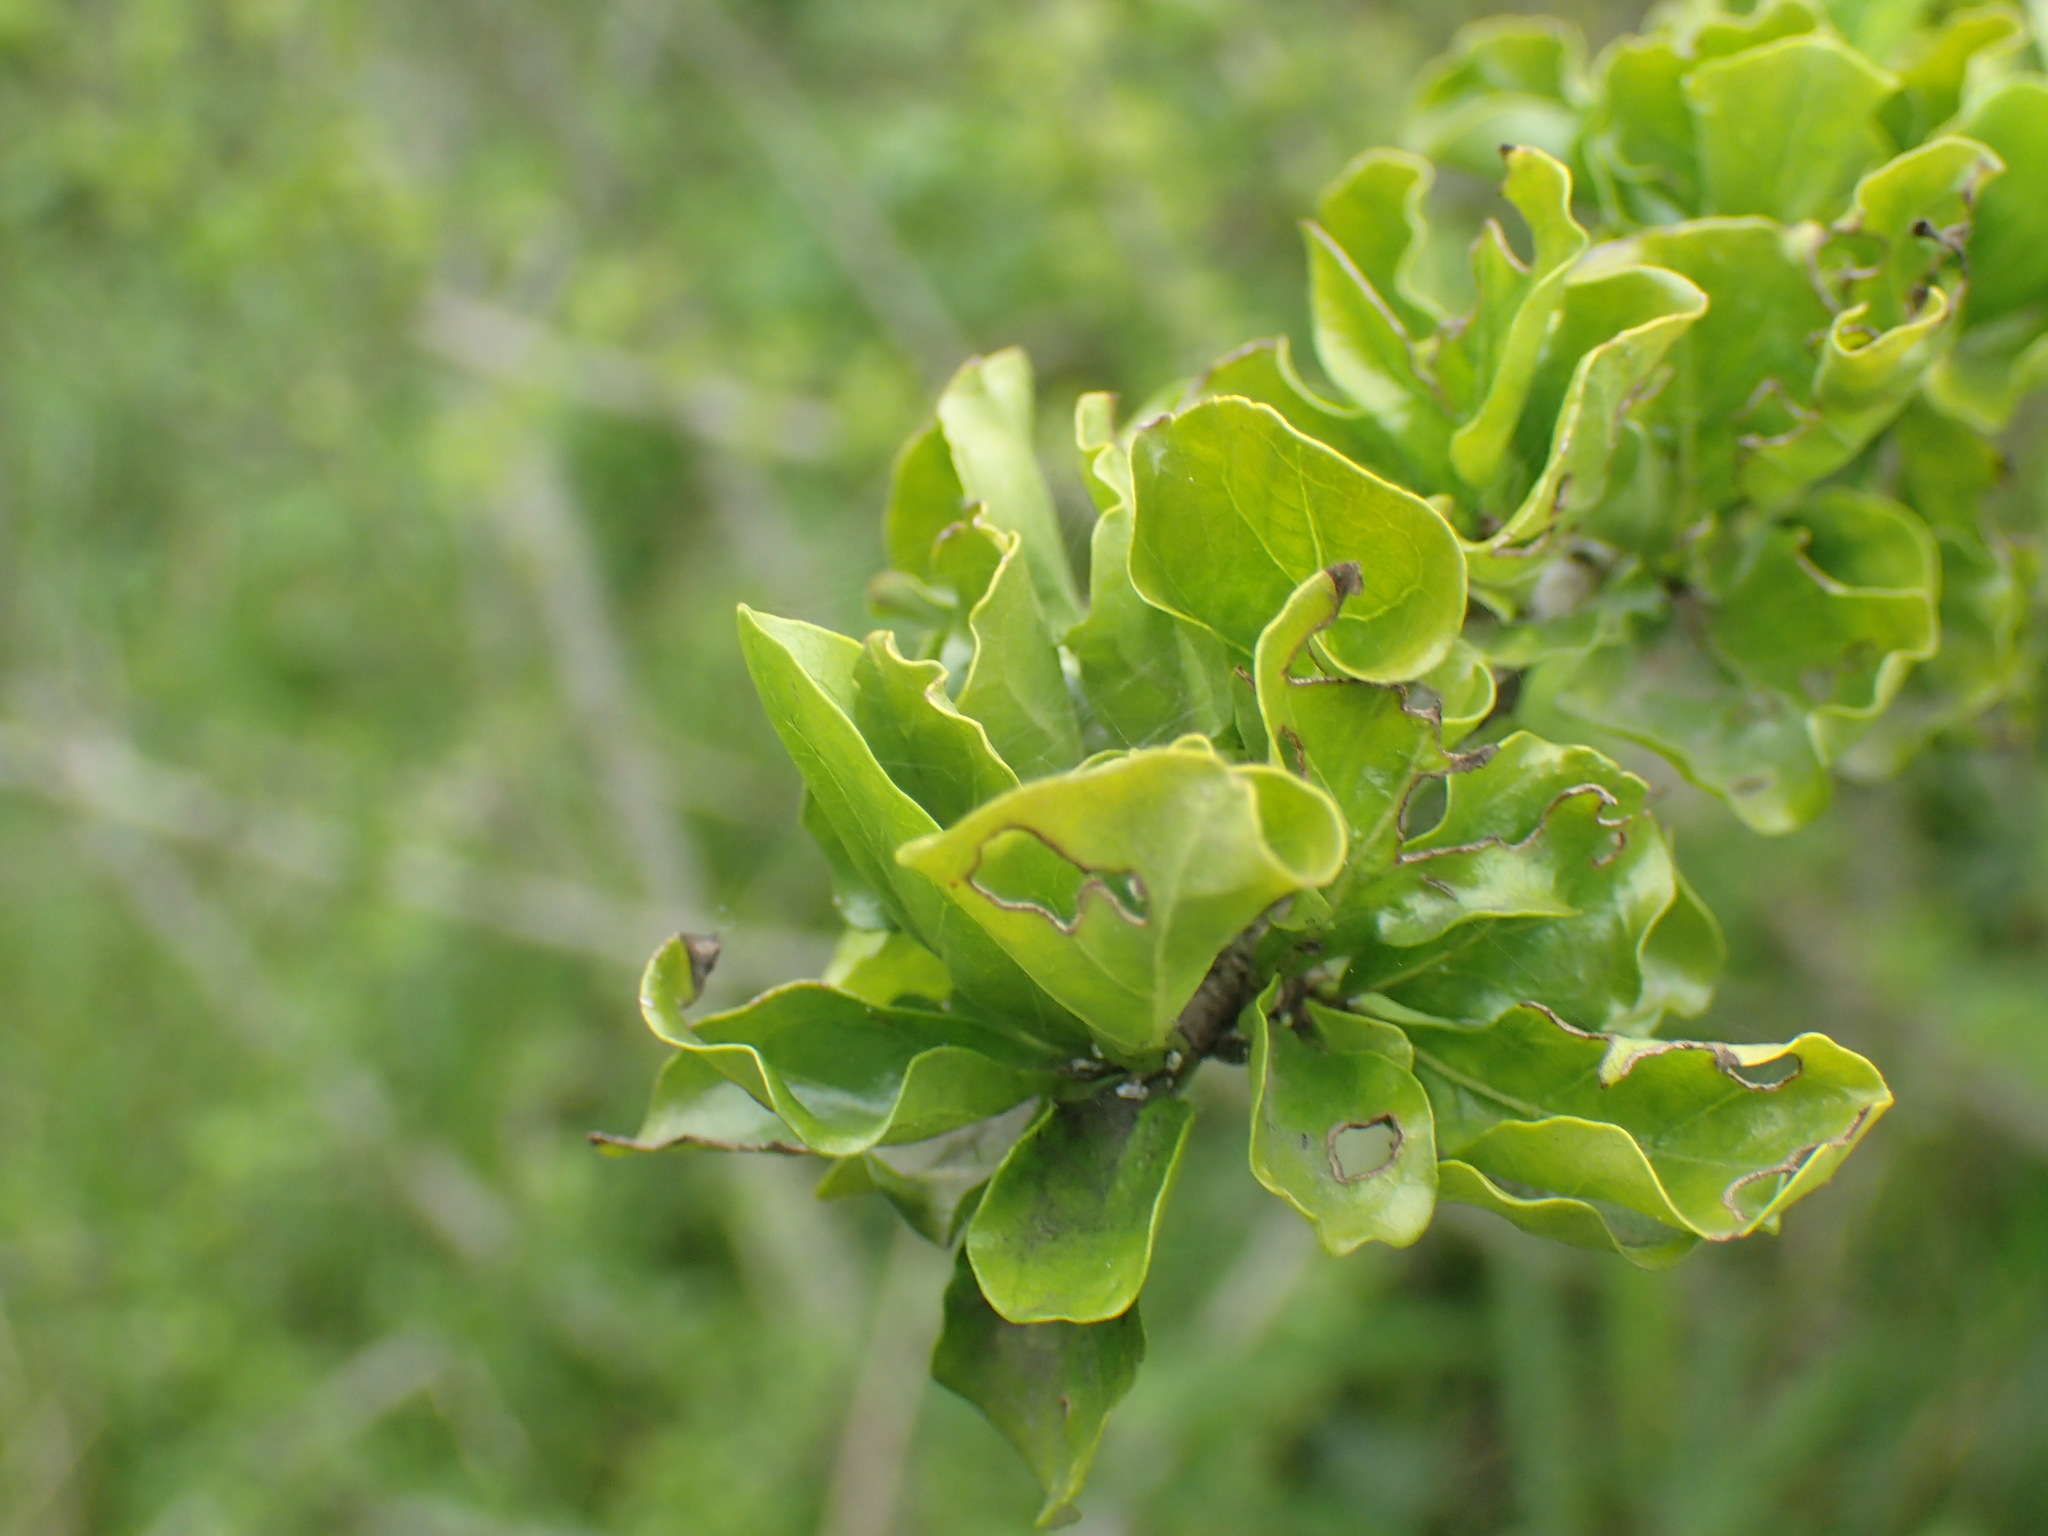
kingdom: Plantae
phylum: Tracheophyta
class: Magnoliopsida
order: Gentianales
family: Rubiaceae
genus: Coddia
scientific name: Coddia rudis
